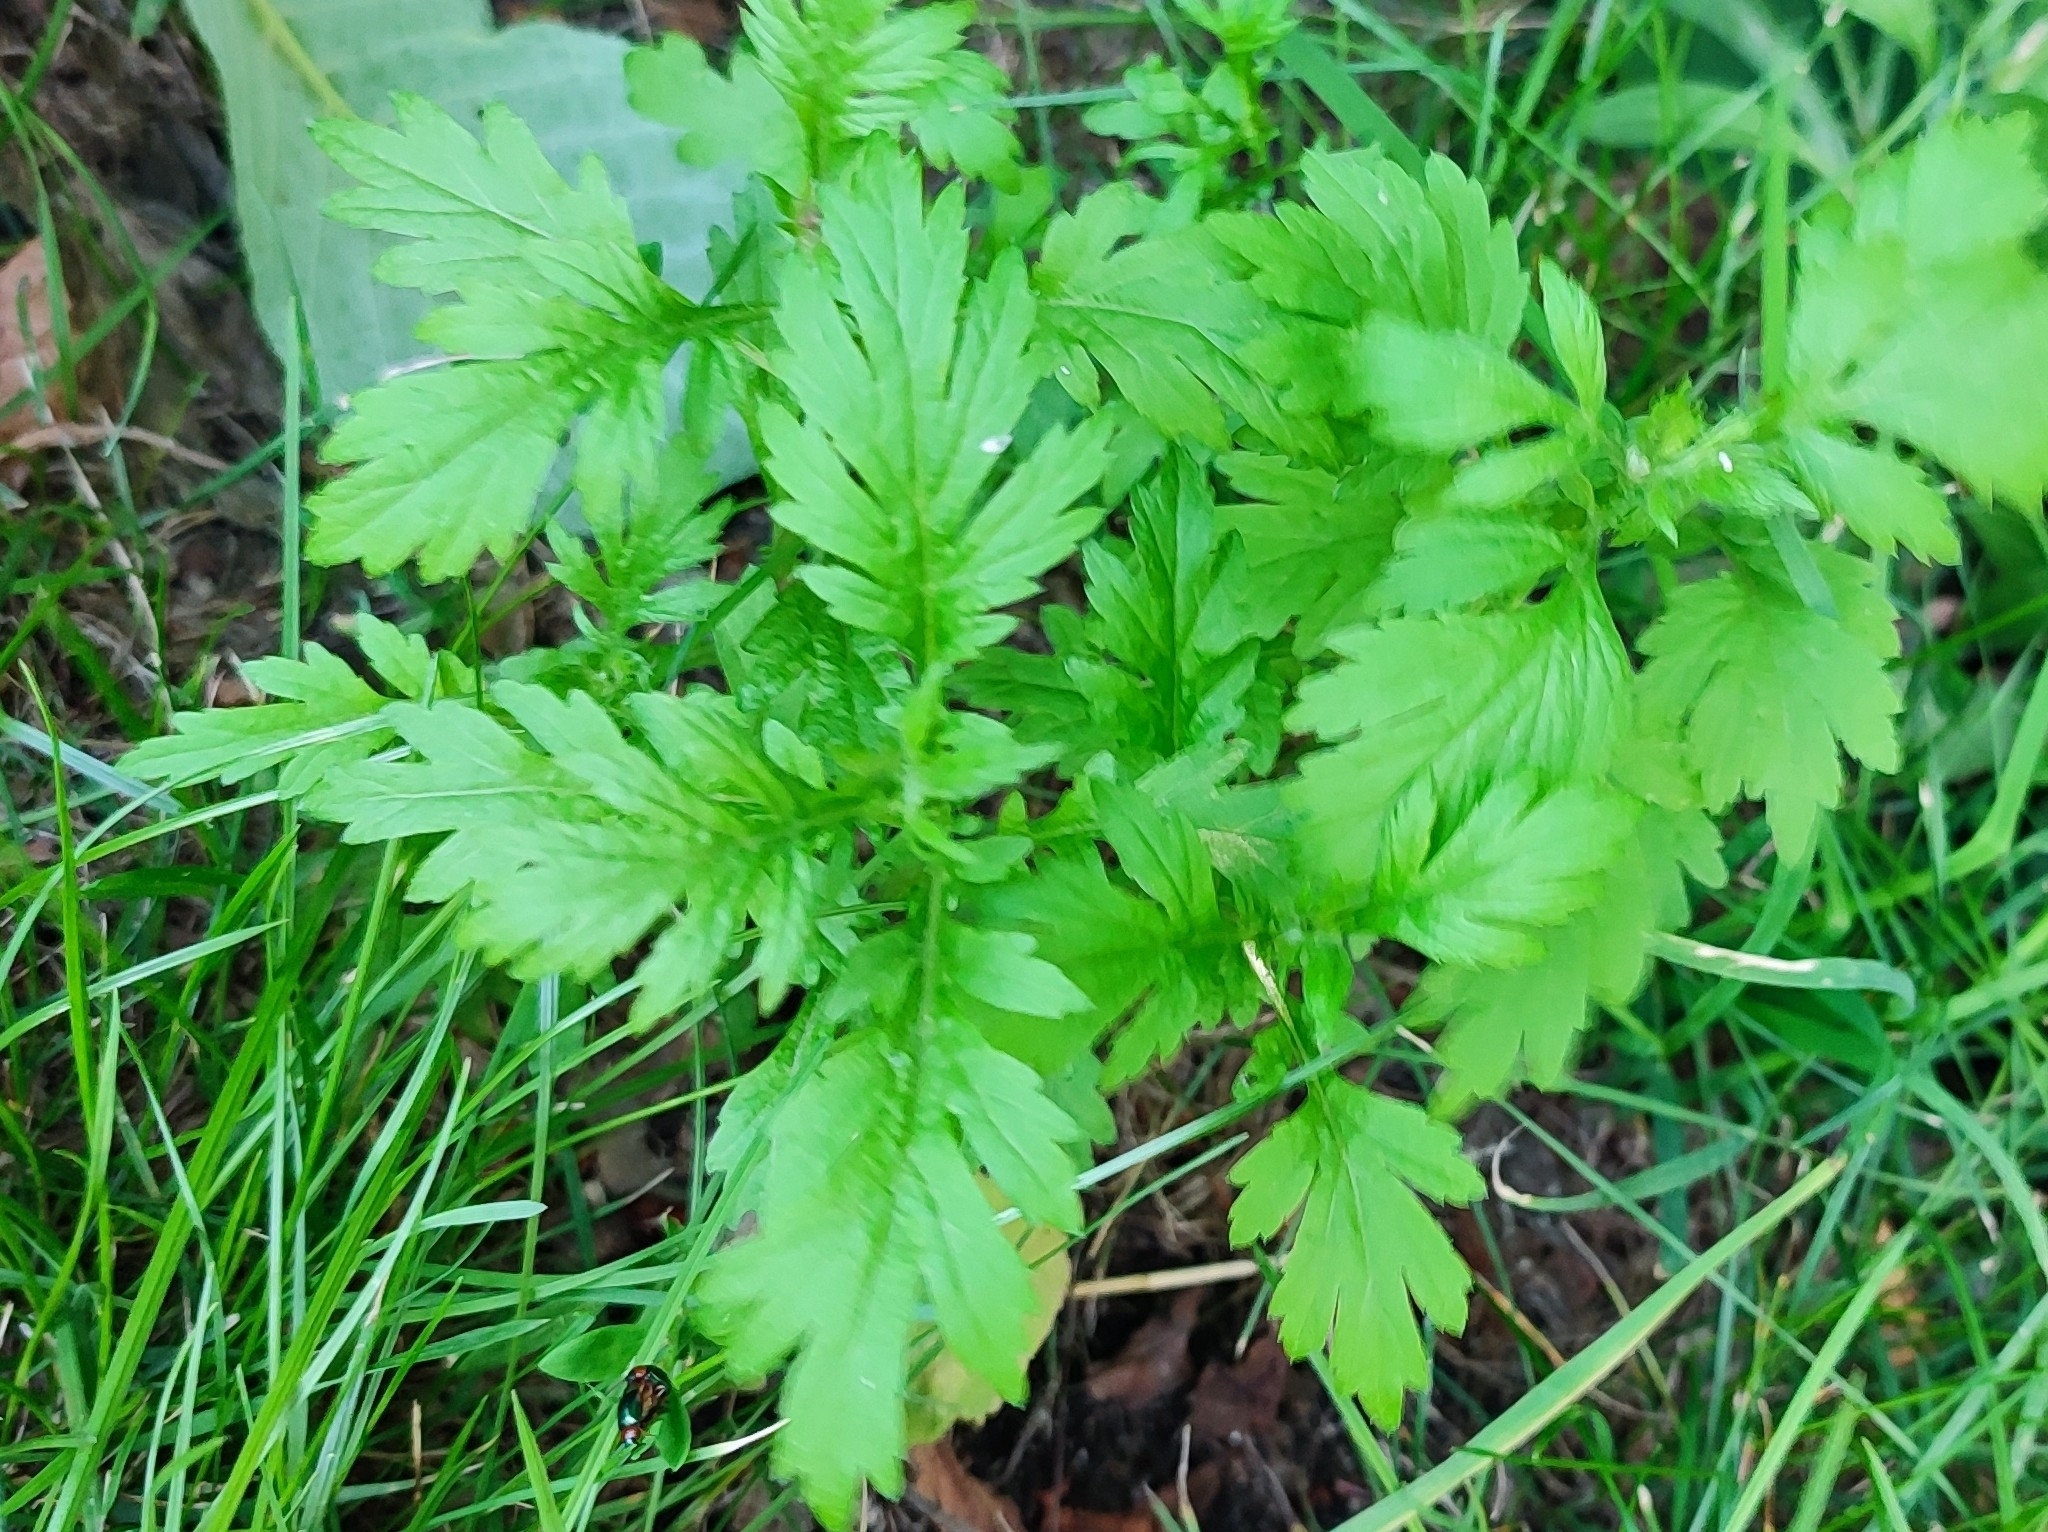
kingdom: Plantae
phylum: Tracheophyta
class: Magnoliopsida
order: Asterales
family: Asteraceae
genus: Artemisia
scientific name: Artemisia vulgaris
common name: Mugwort
